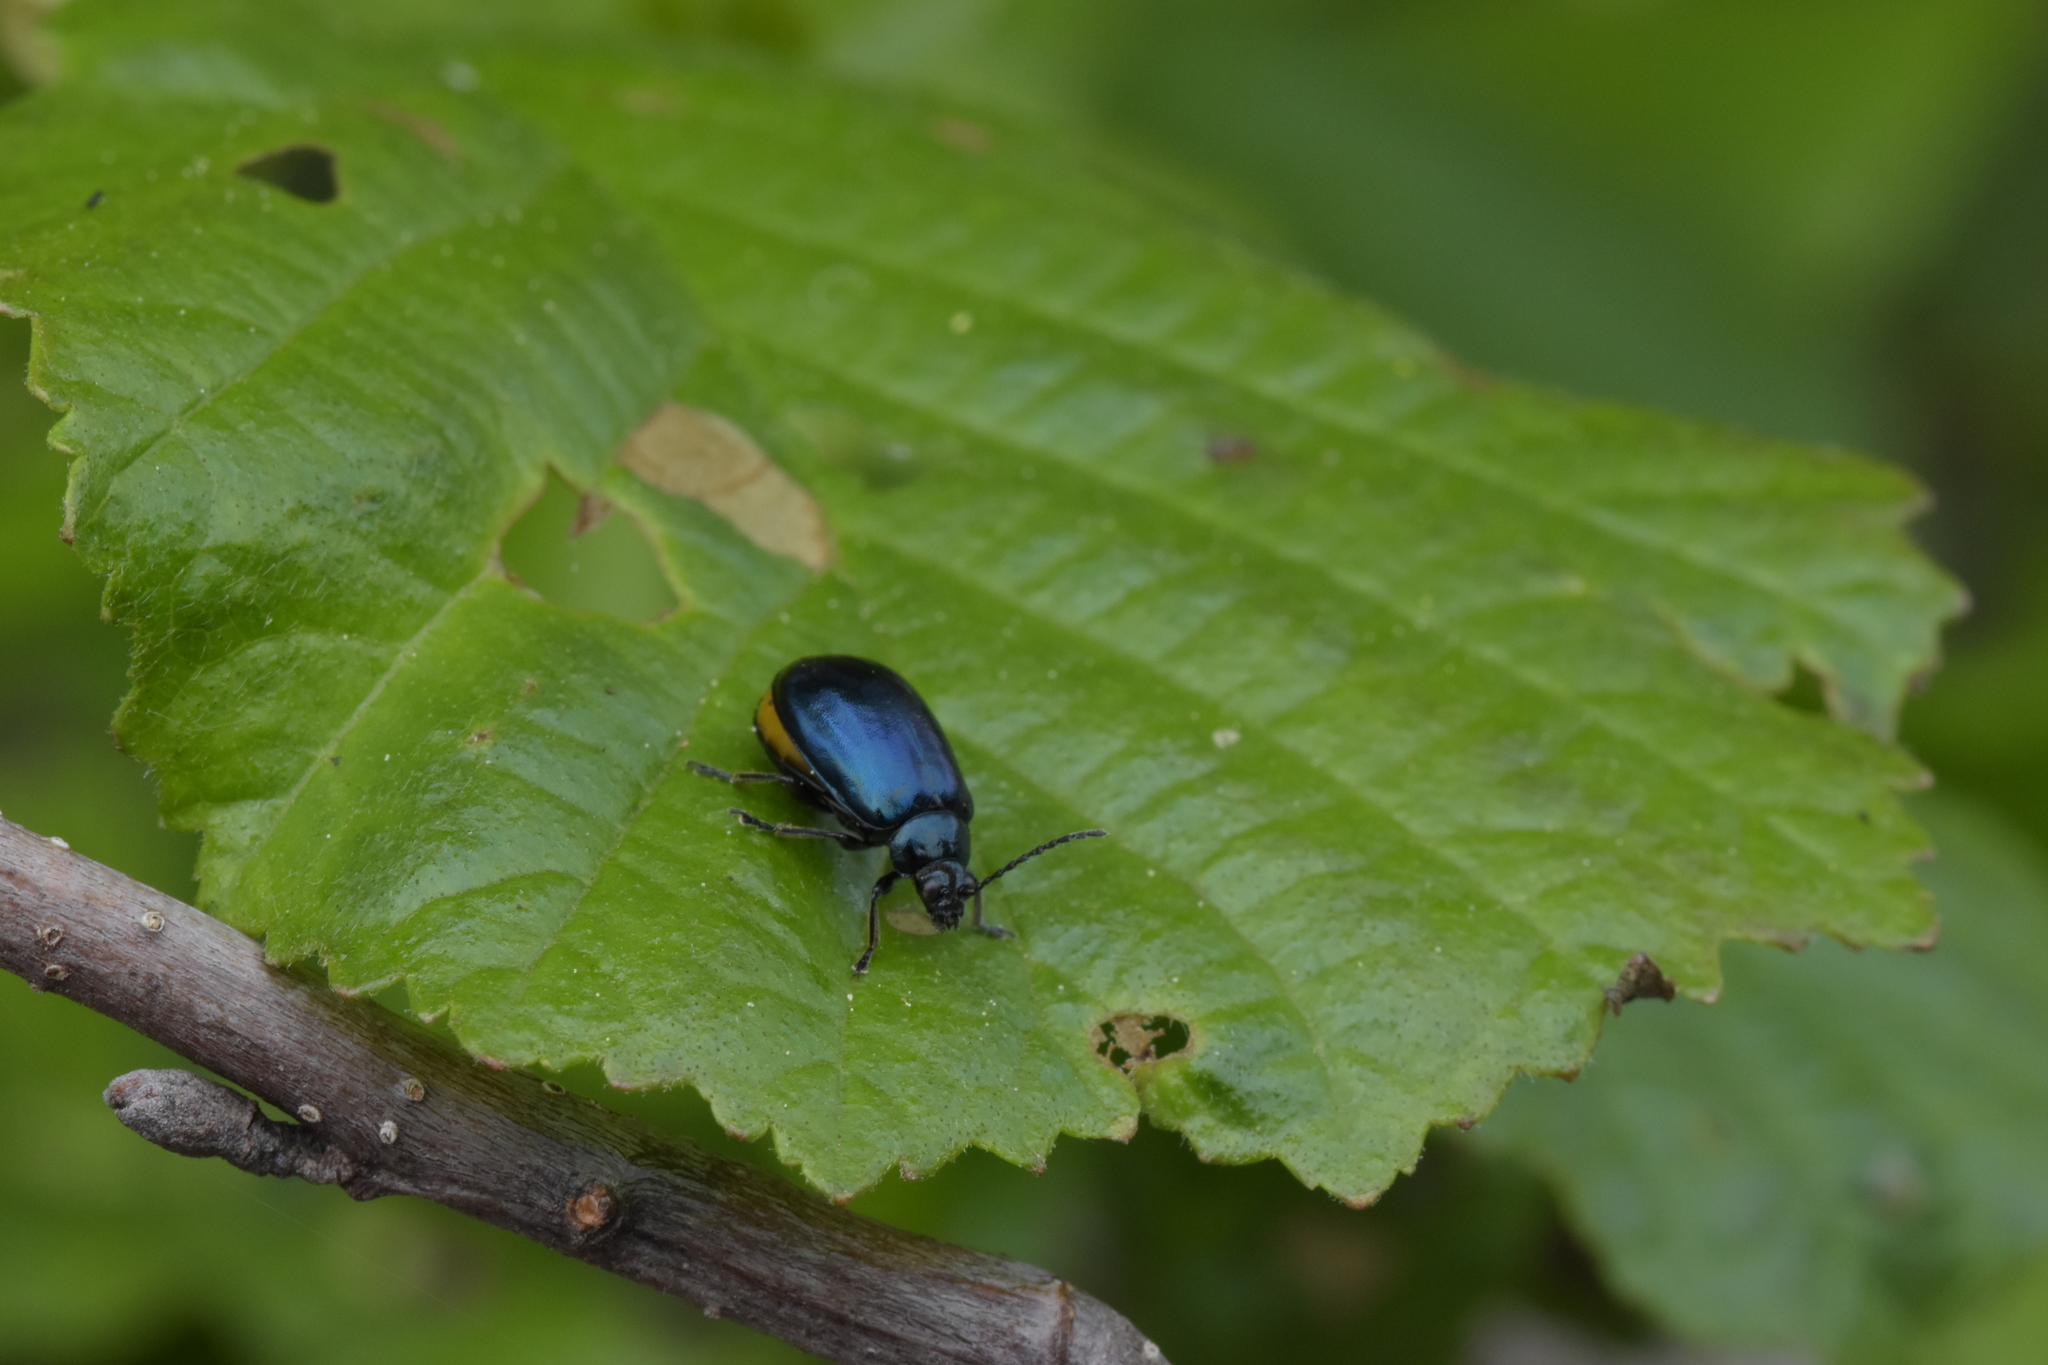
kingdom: Animalia
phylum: Arthropoda
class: Insecta
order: Coleoptera
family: Chrysomelidae
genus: Agelastica
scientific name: Agelastica alni
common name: Alder leaf beetle
